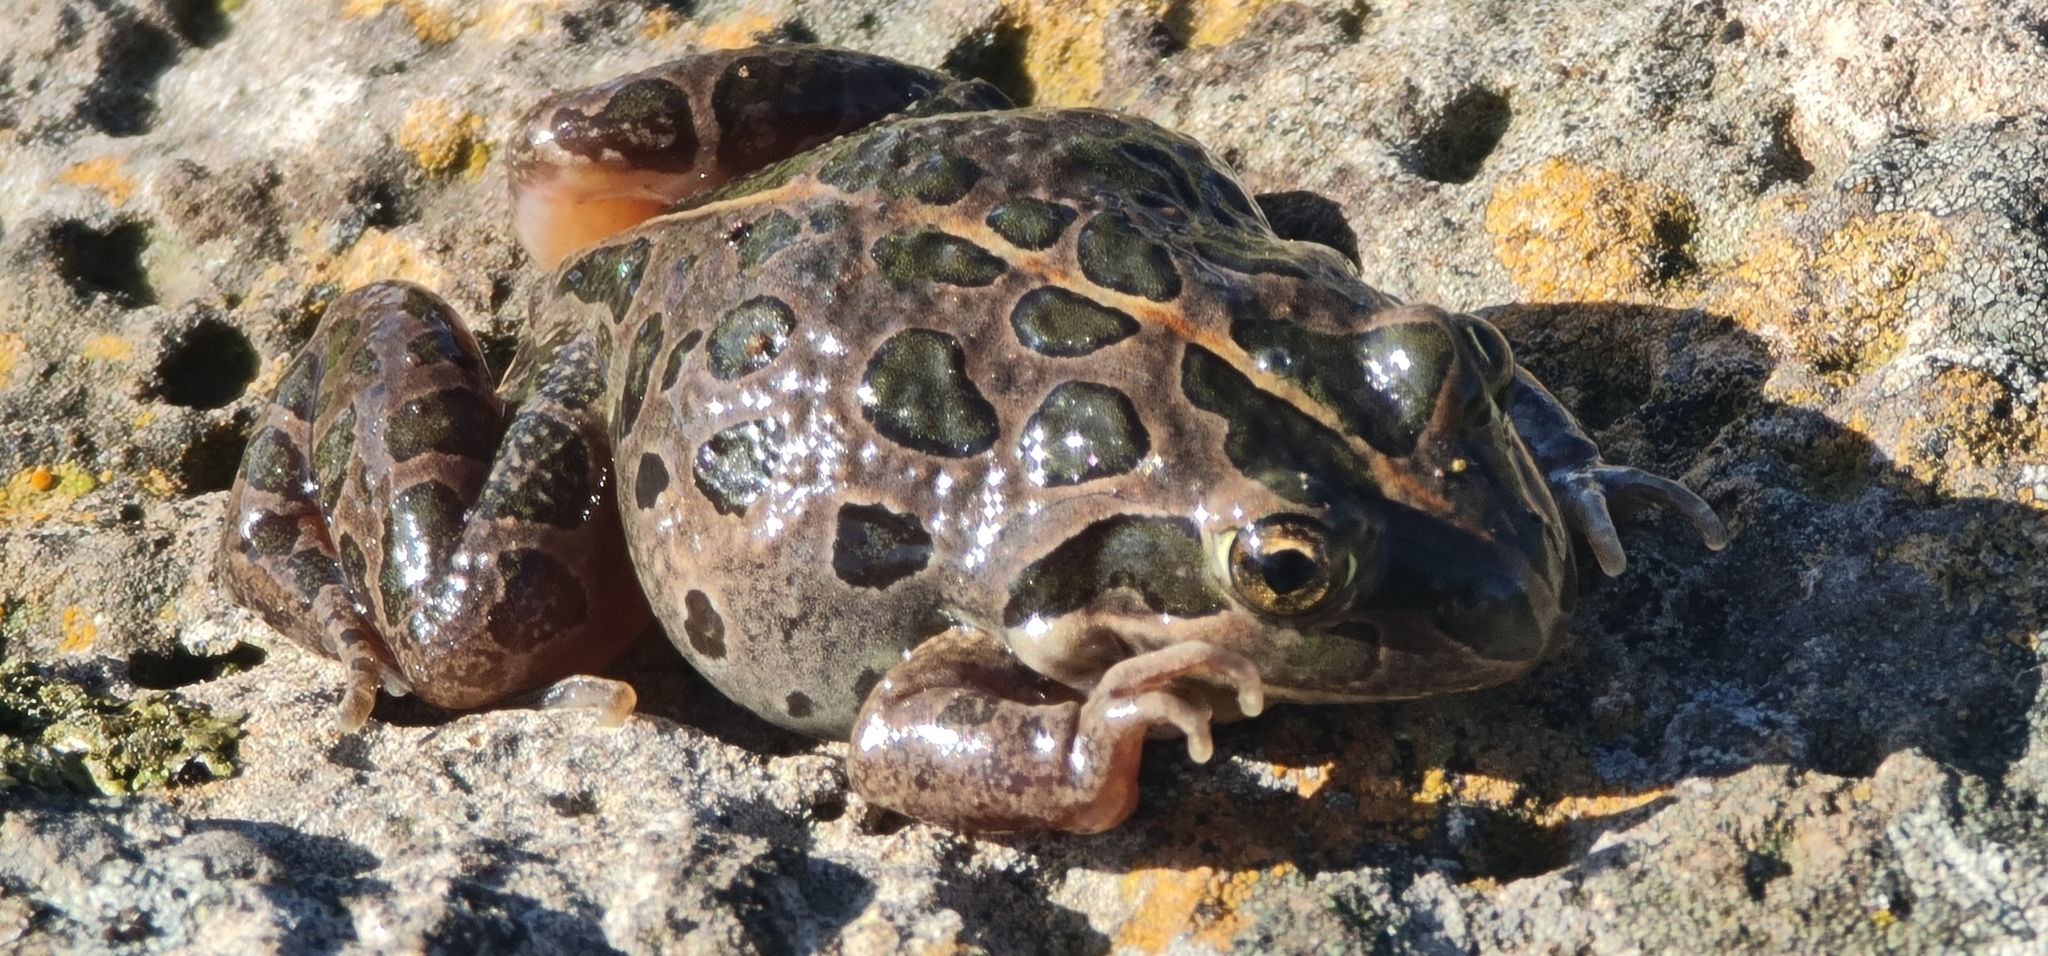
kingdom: Animalia
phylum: Chordata
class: Amphibia
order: Anura
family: Limnodynastidae
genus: Limnodynastes
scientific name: Limnodynastes tasmaniensis
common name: Spotted marsh frog
